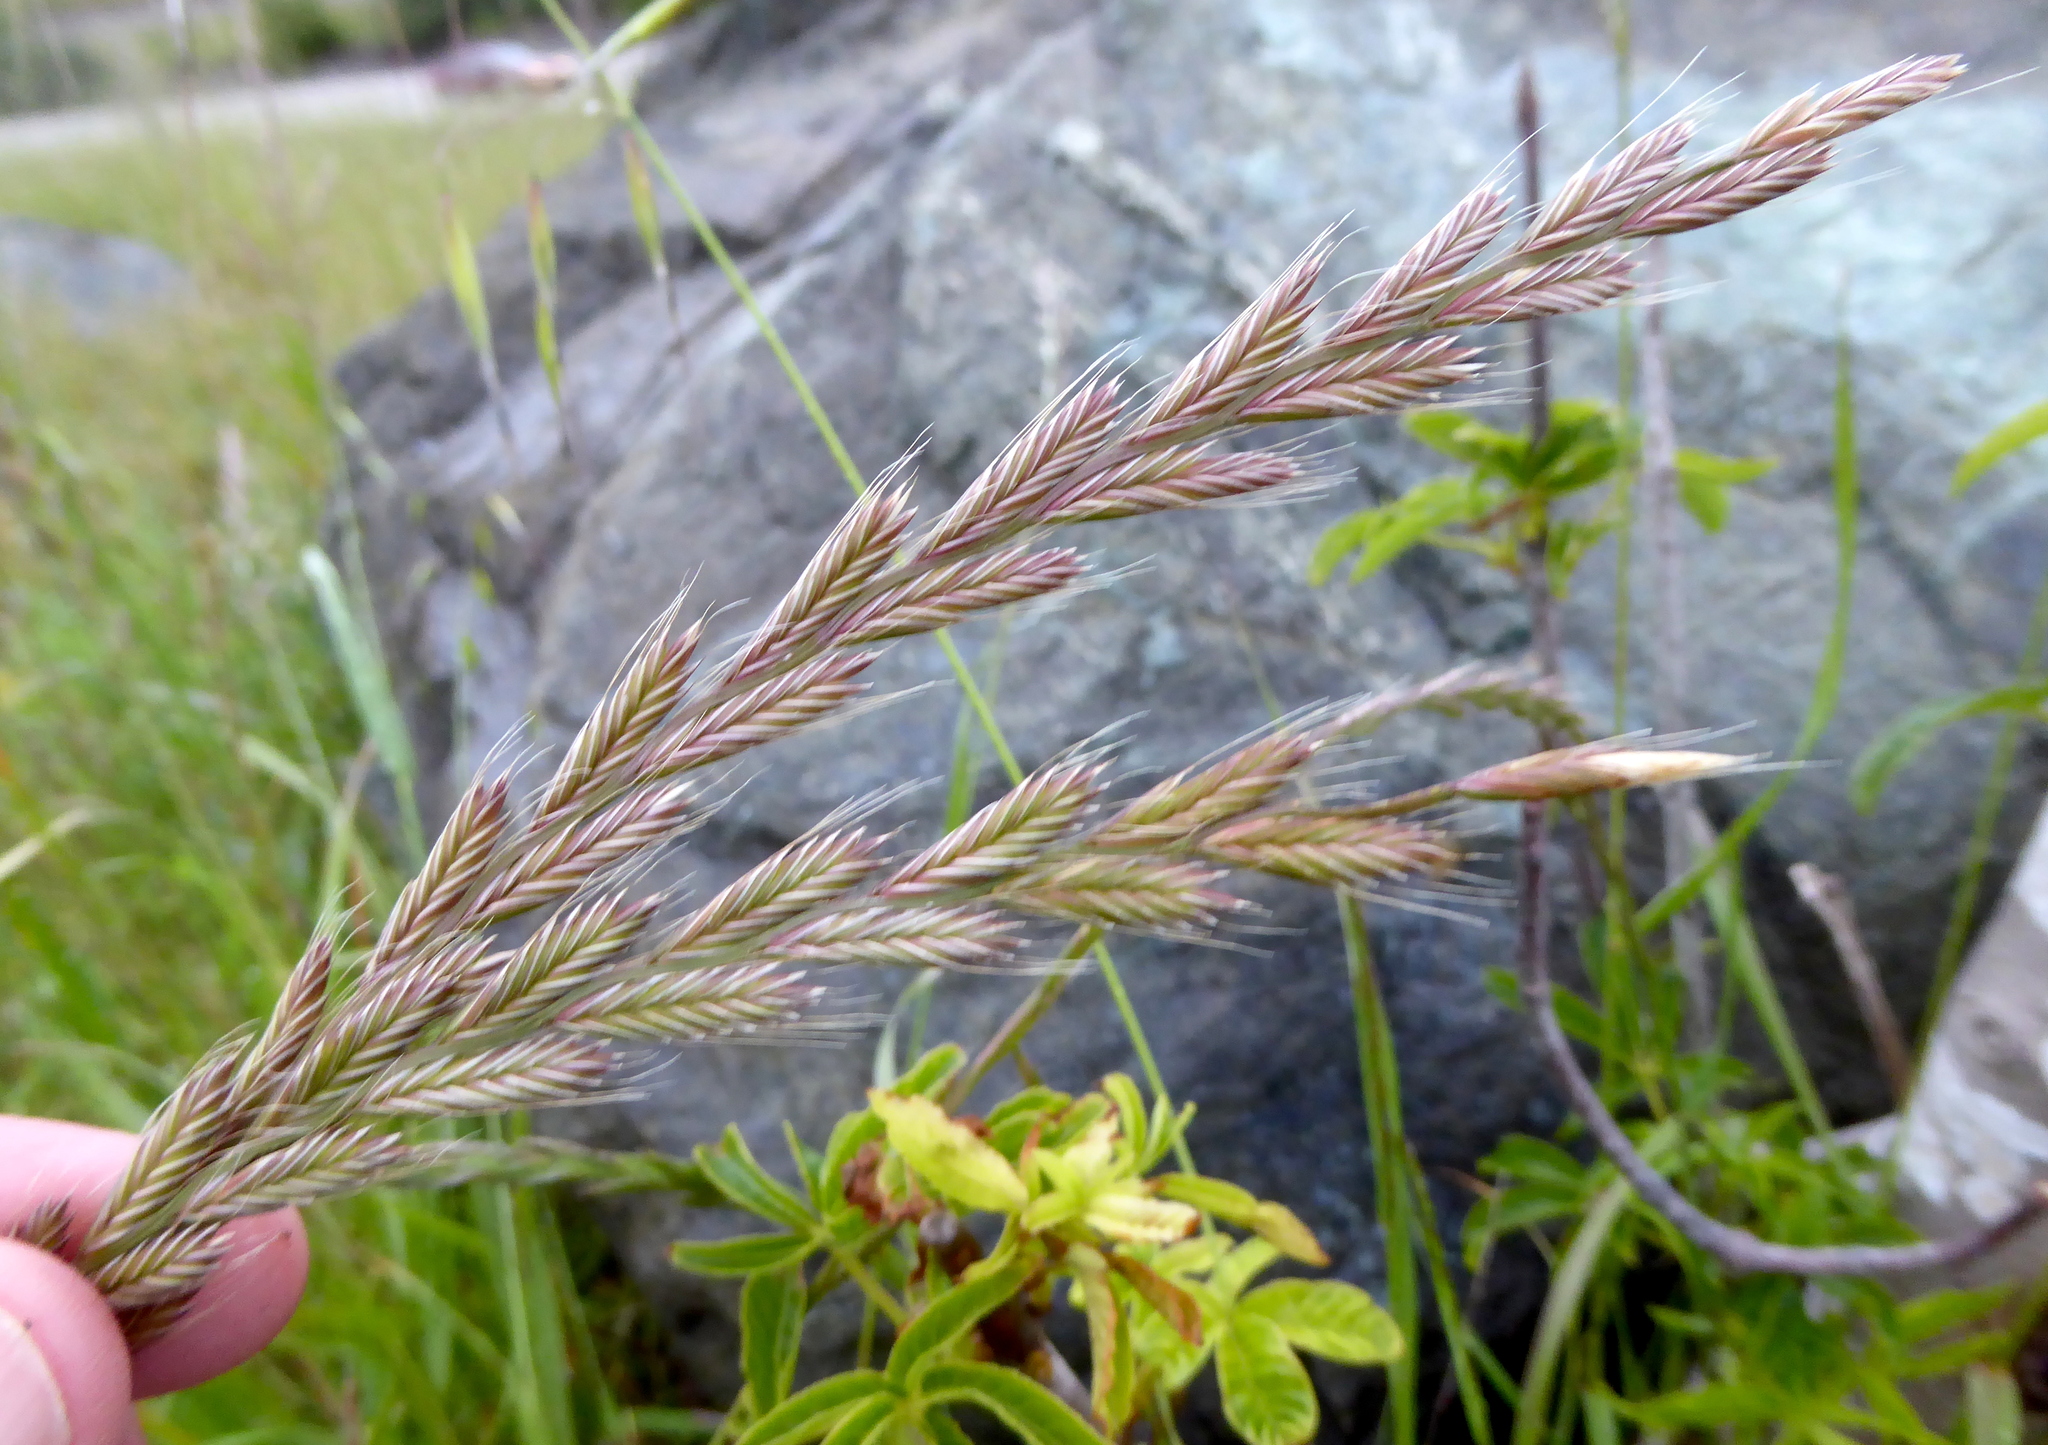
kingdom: Plantae
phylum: Tracheophyta
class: Liliopsida
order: Poales
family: Poaceae
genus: Lolium
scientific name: Lolium perenne
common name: Perennial ryegrass
